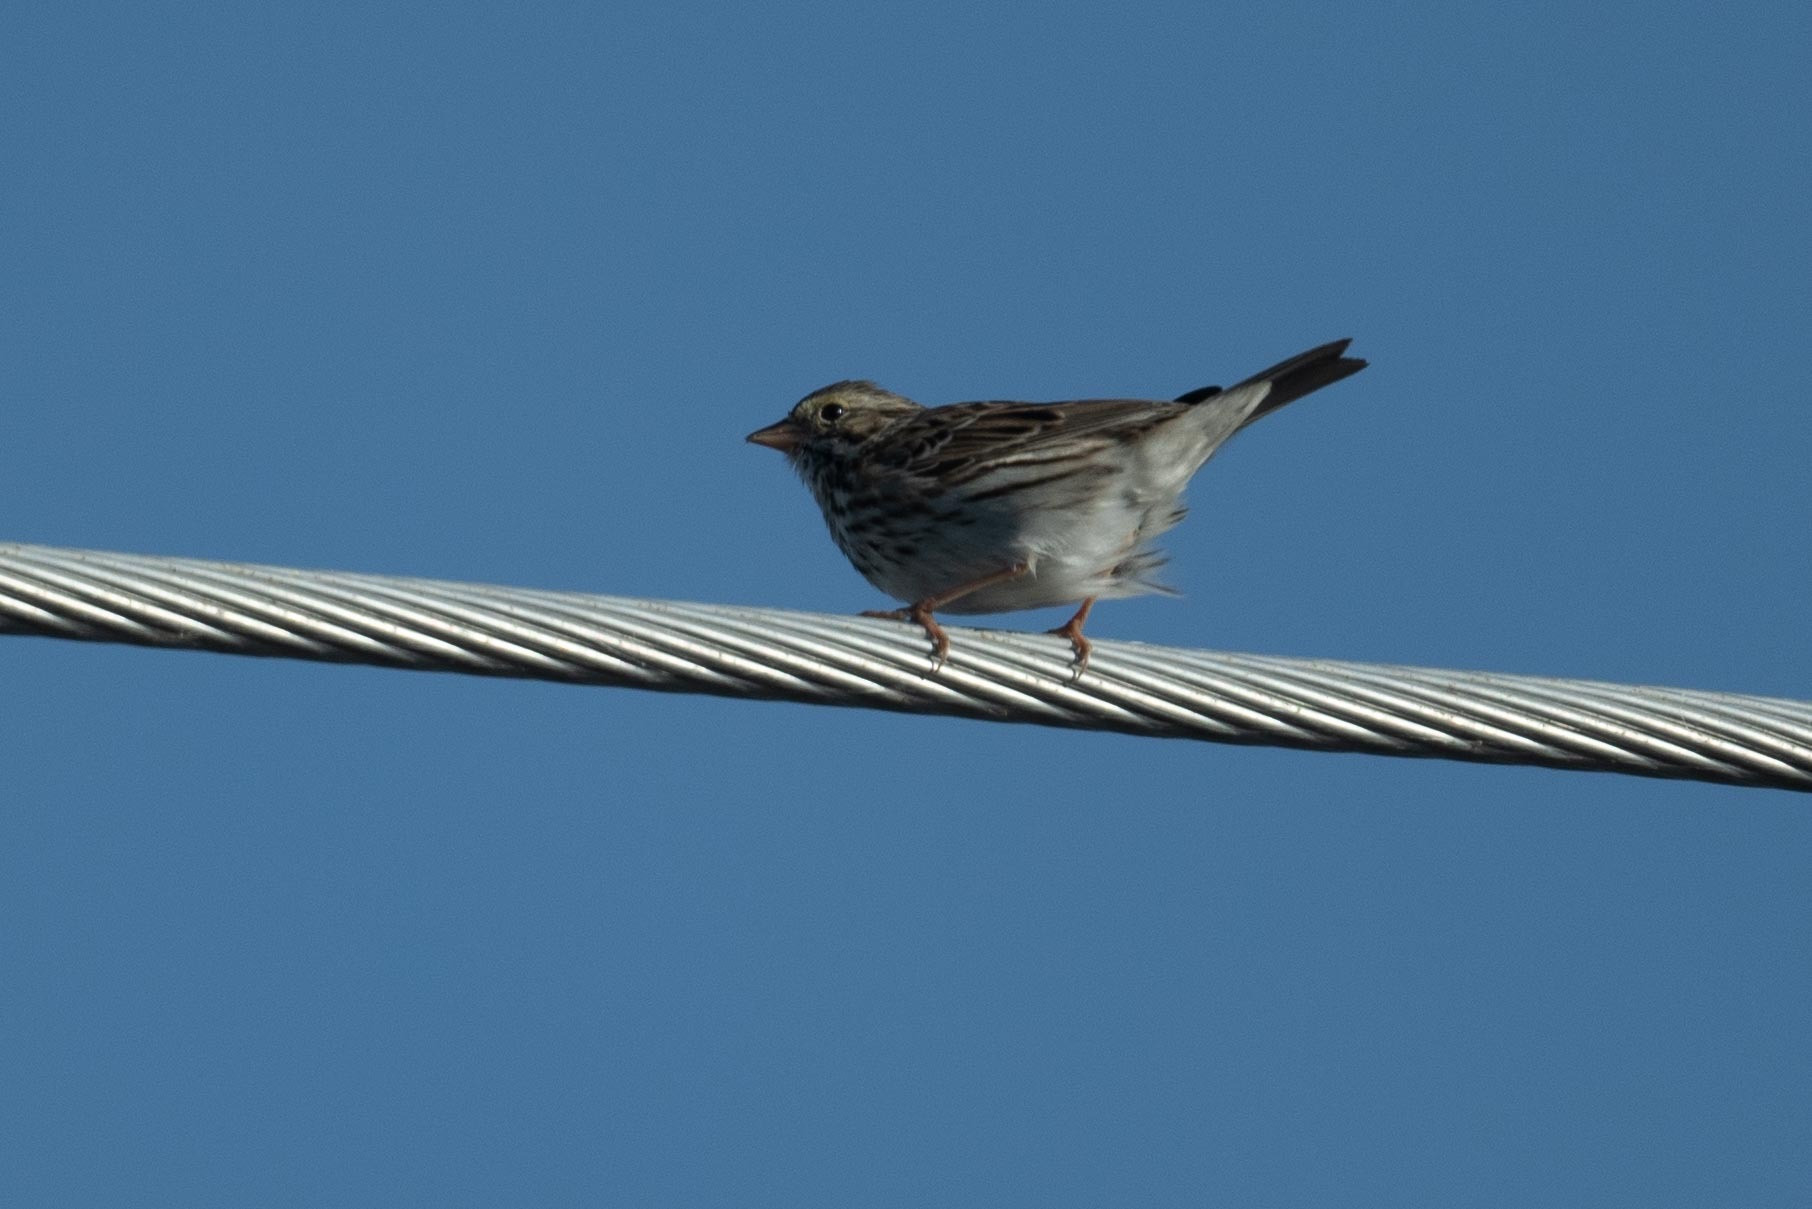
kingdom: Animalia
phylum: Chordata
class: Aves
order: Passeriformes
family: Passerellidae
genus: Passerculus
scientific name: Passerculus sandwichensis
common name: Savannah sparrow
